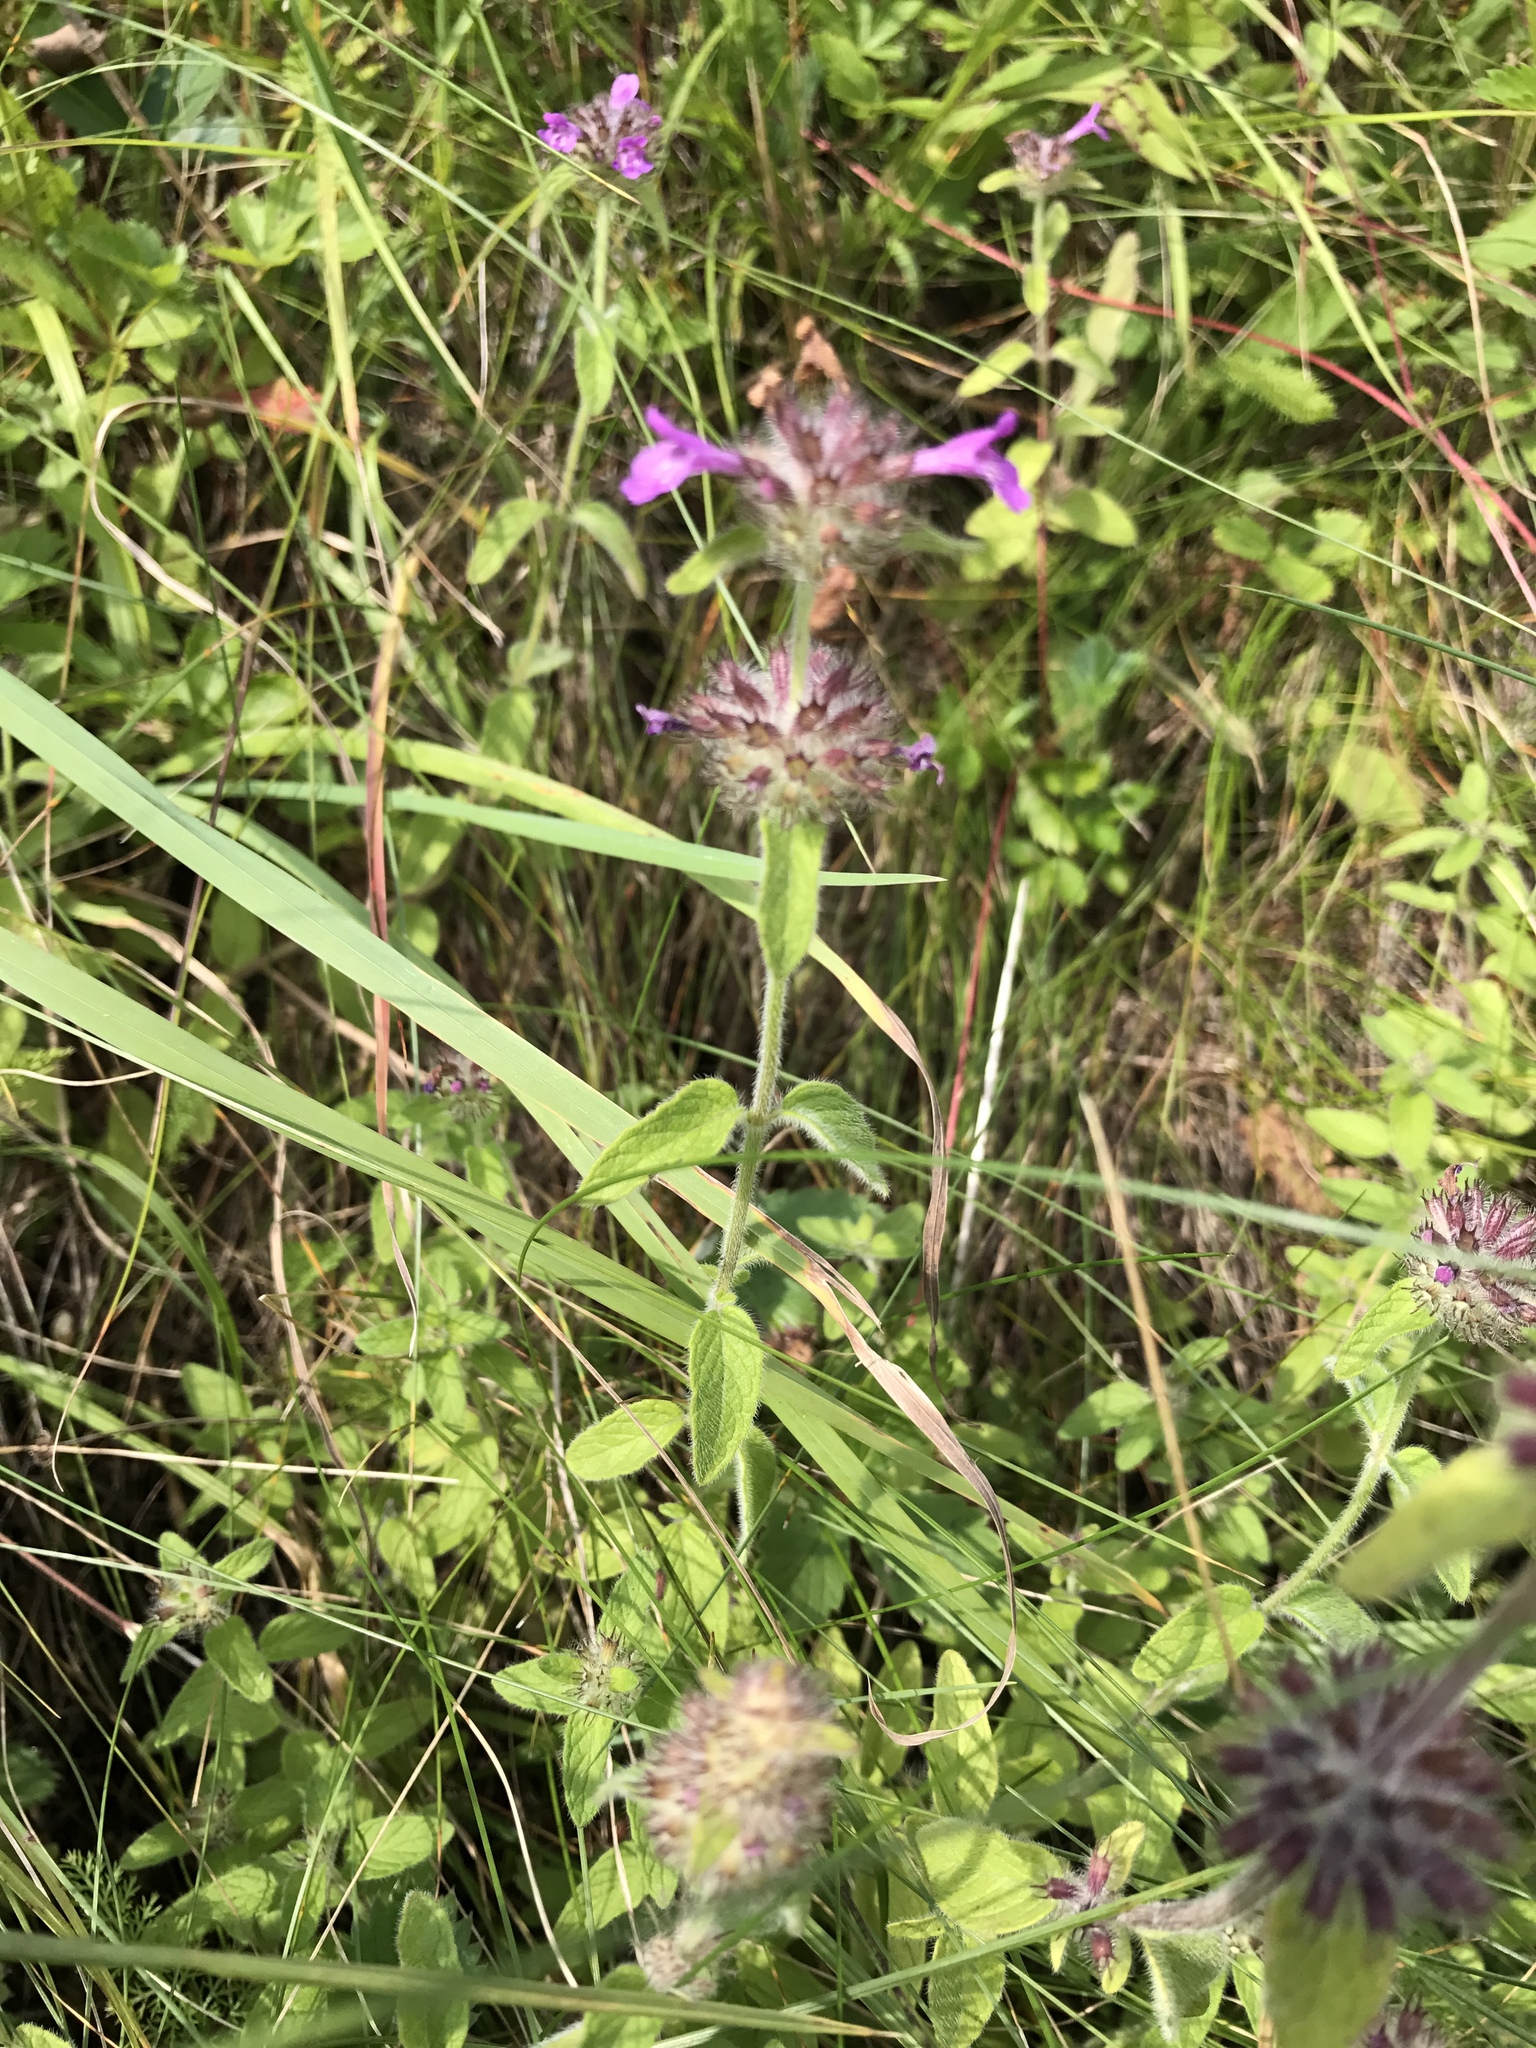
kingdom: Plantae
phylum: Tracheophyta
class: Magnoliopsida
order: Lamiales
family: Lamiaceae
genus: Clinopodium
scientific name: Clinopodium vulgare
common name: Wild basil
